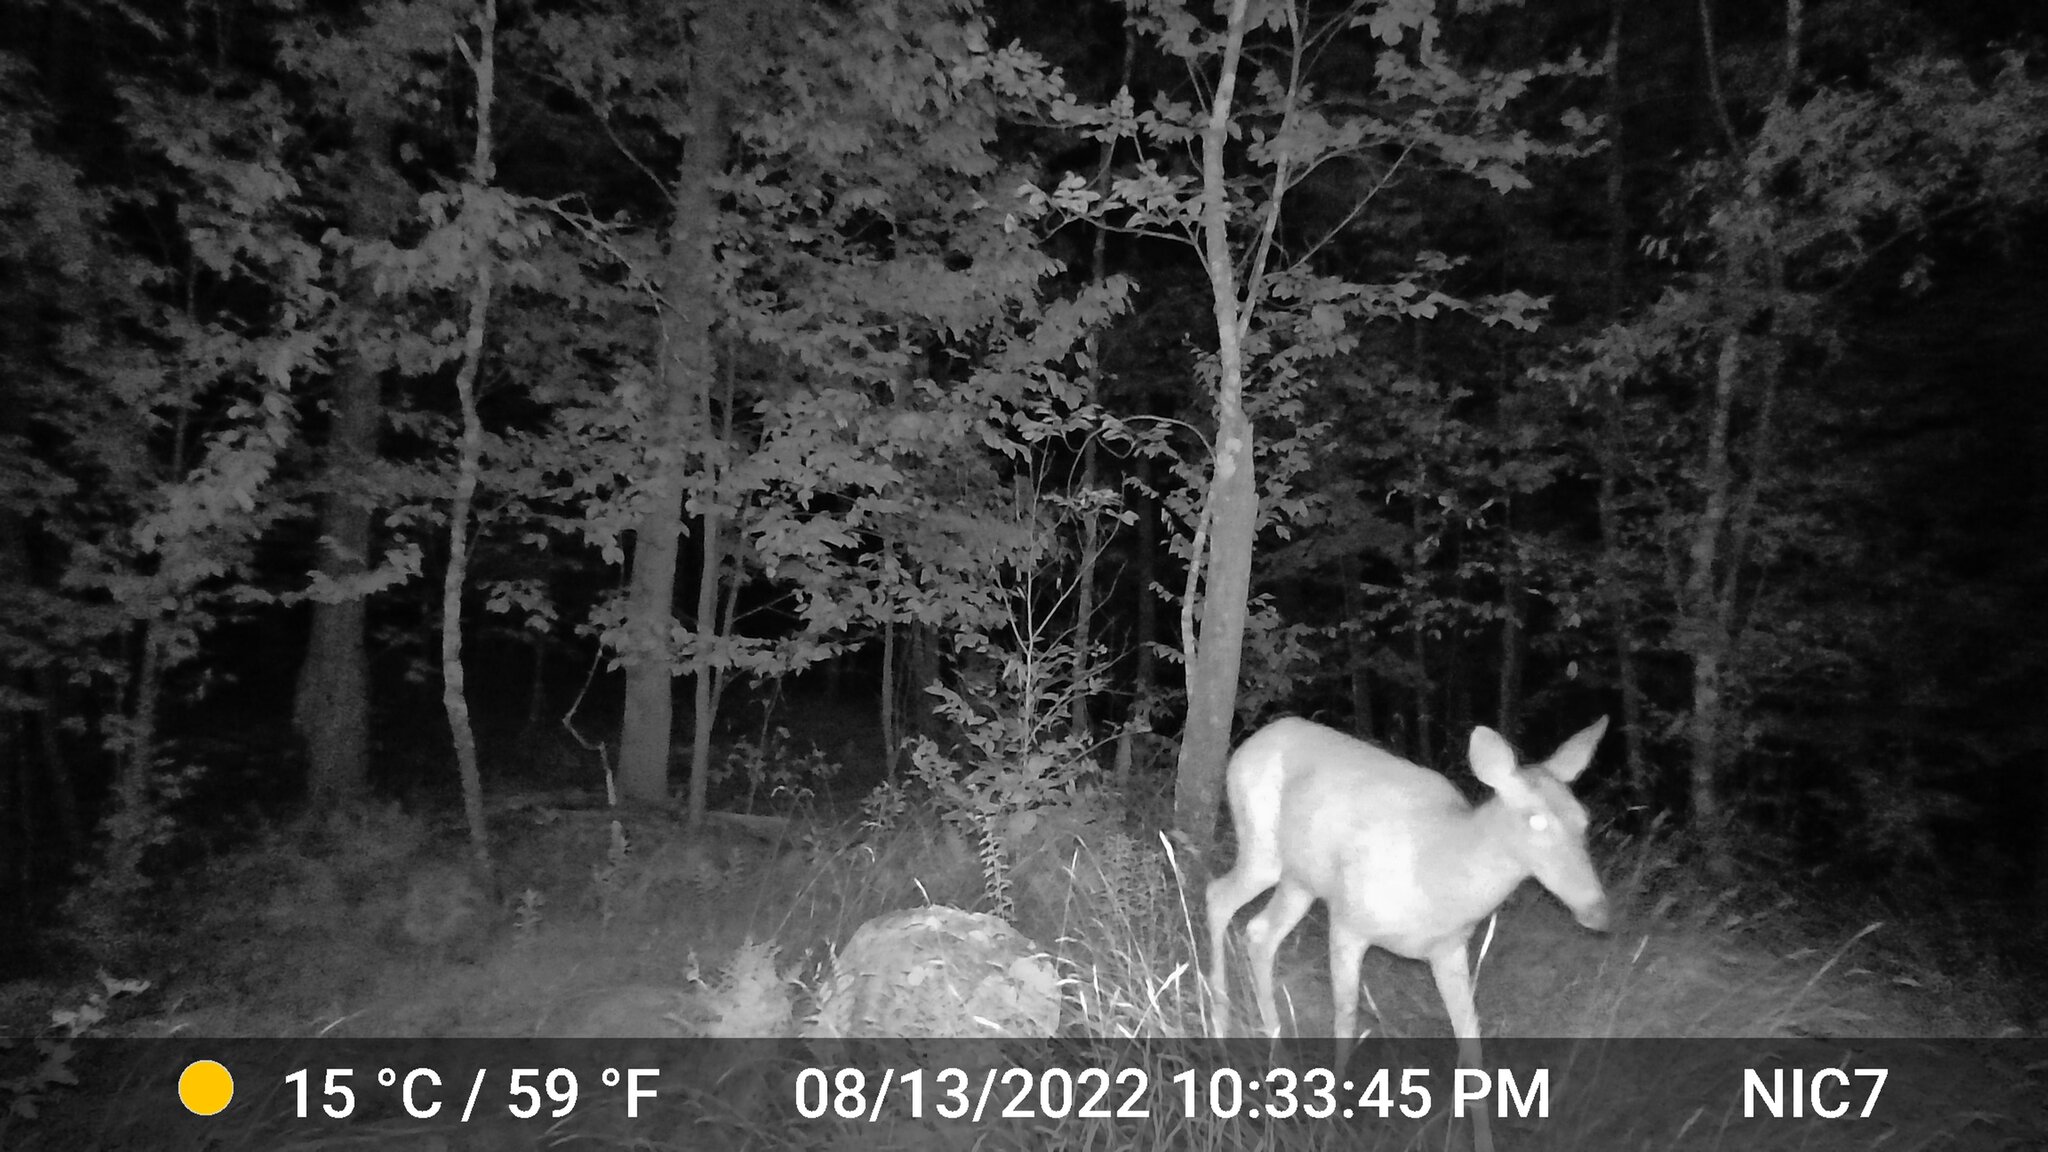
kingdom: Animalia
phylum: Chordata
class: Mammalia
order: Artiodactyla
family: Cervidae
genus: Odocoileus
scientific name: Odocoileus virginianus
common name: White-tailed deer
